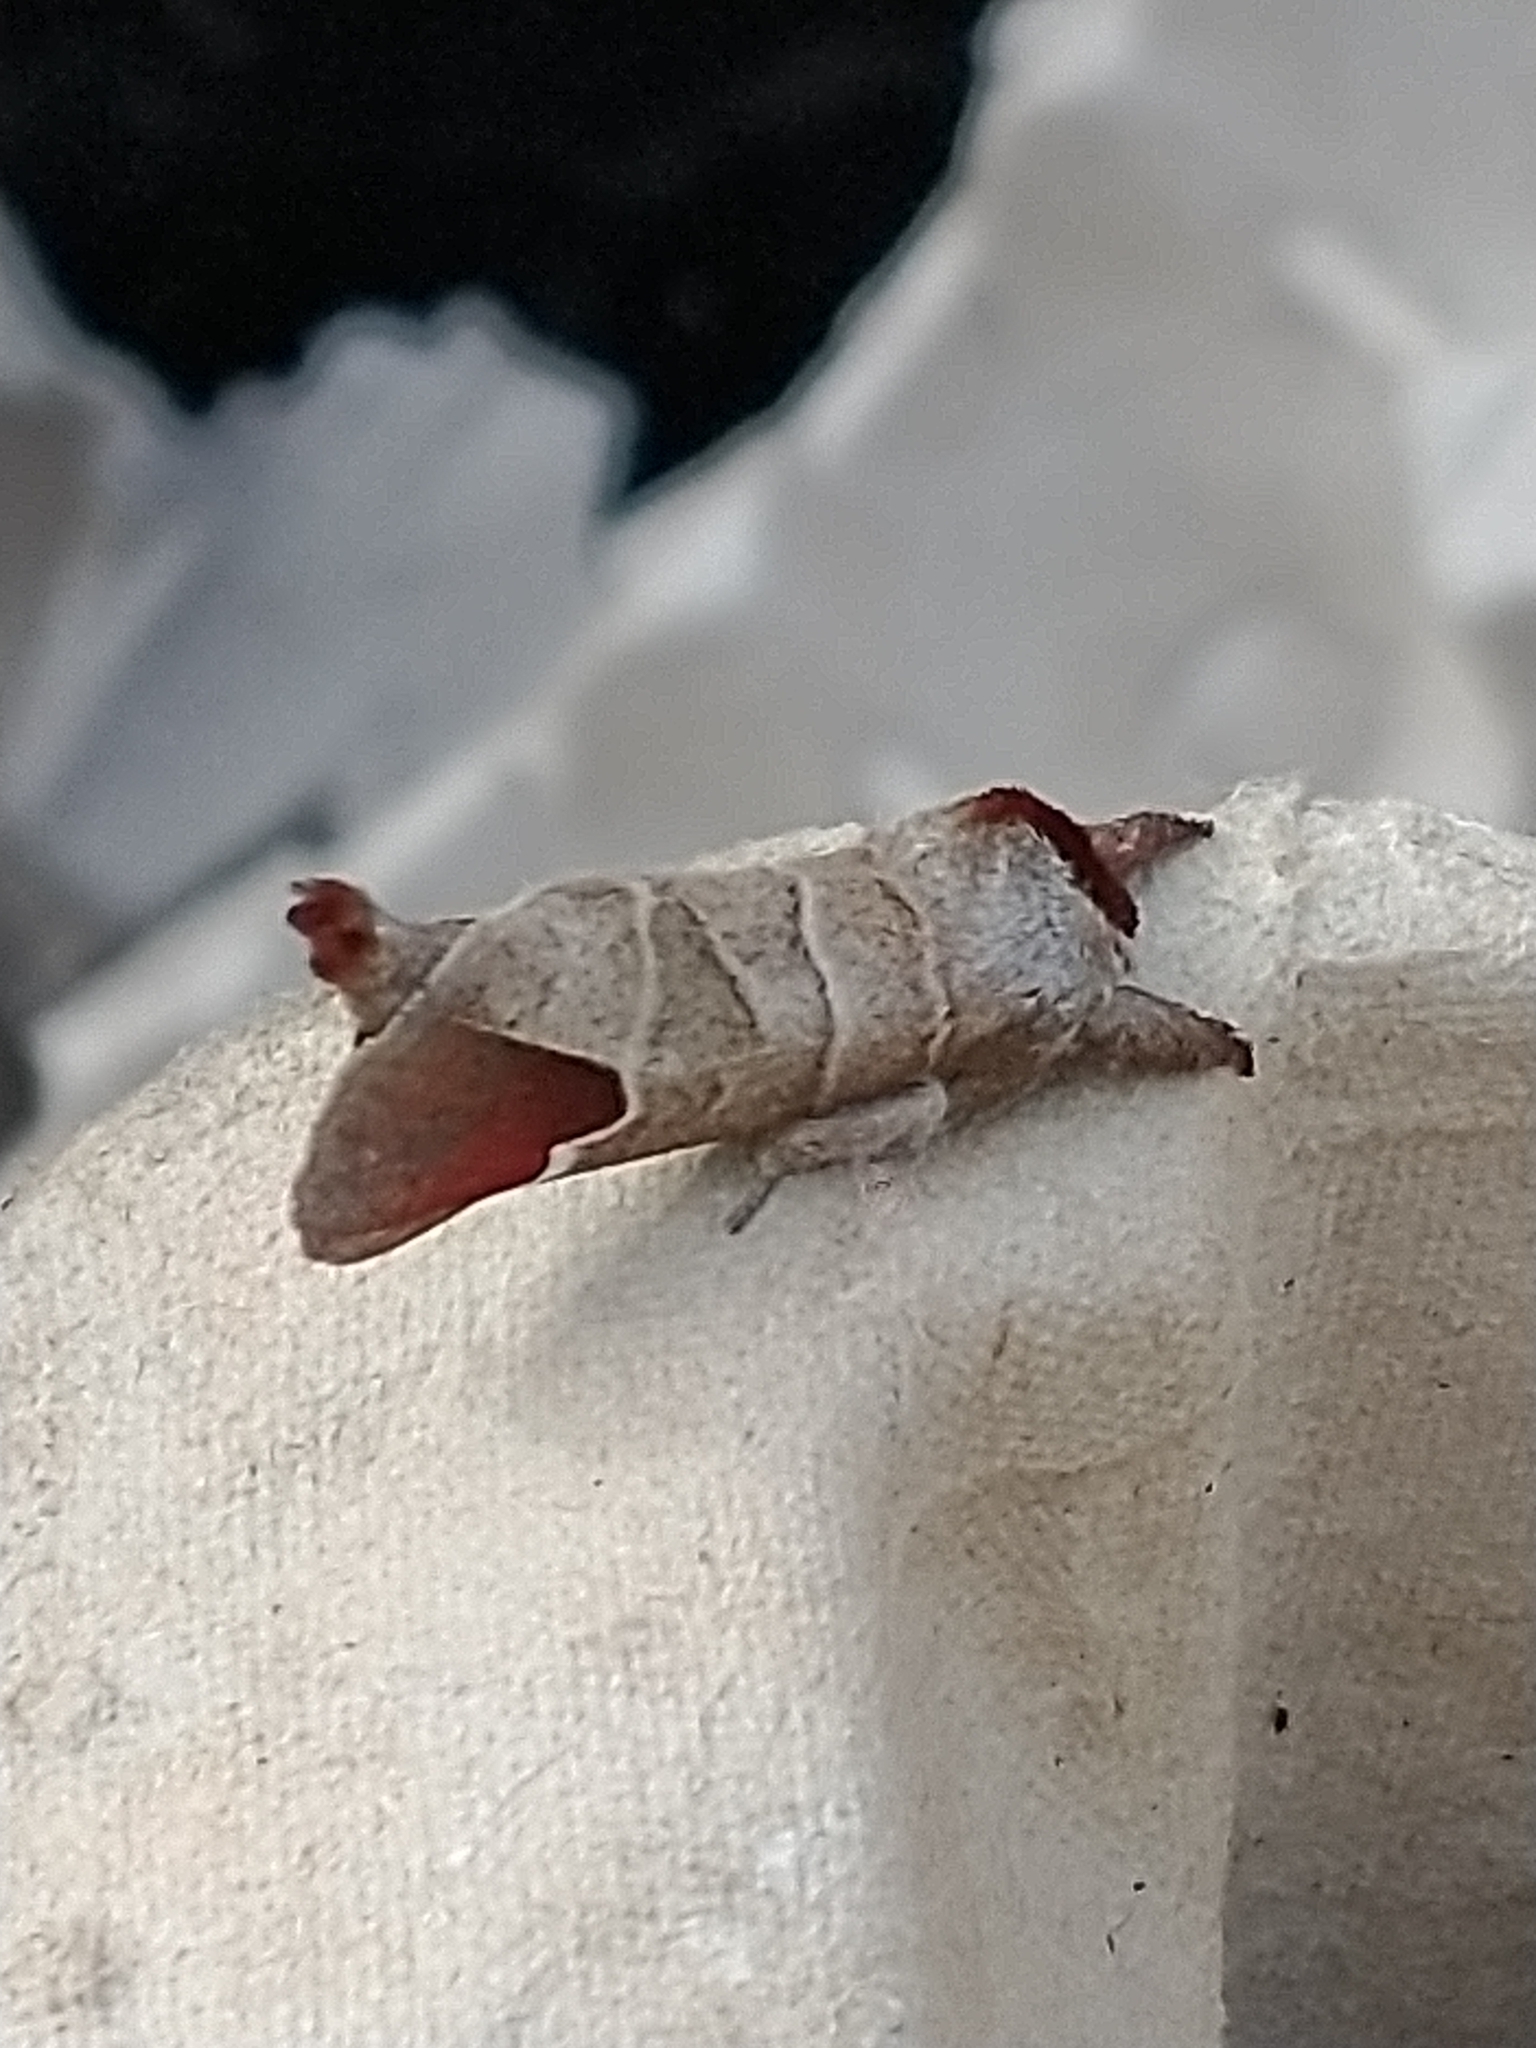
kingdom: Animalia
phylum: Arthropoda
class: Insecta
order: Lepidoptera
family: Notodontidae
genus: Clostera
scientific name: Clostera curtula
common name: Chocolate-tip
